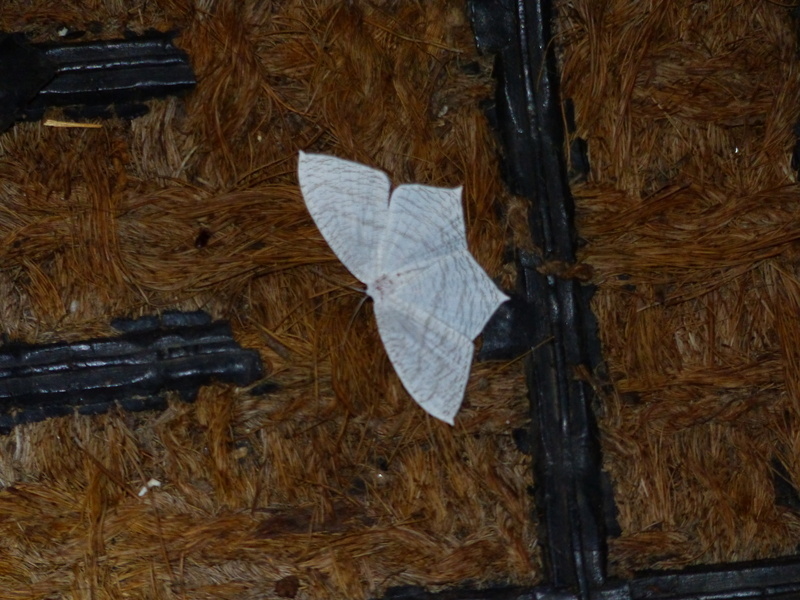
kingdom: Animalia
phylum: Arthropoda
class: Insecta
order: Lepidoptera
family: Uraniidae
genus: Acropteris
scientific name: Acropteris illiturata
